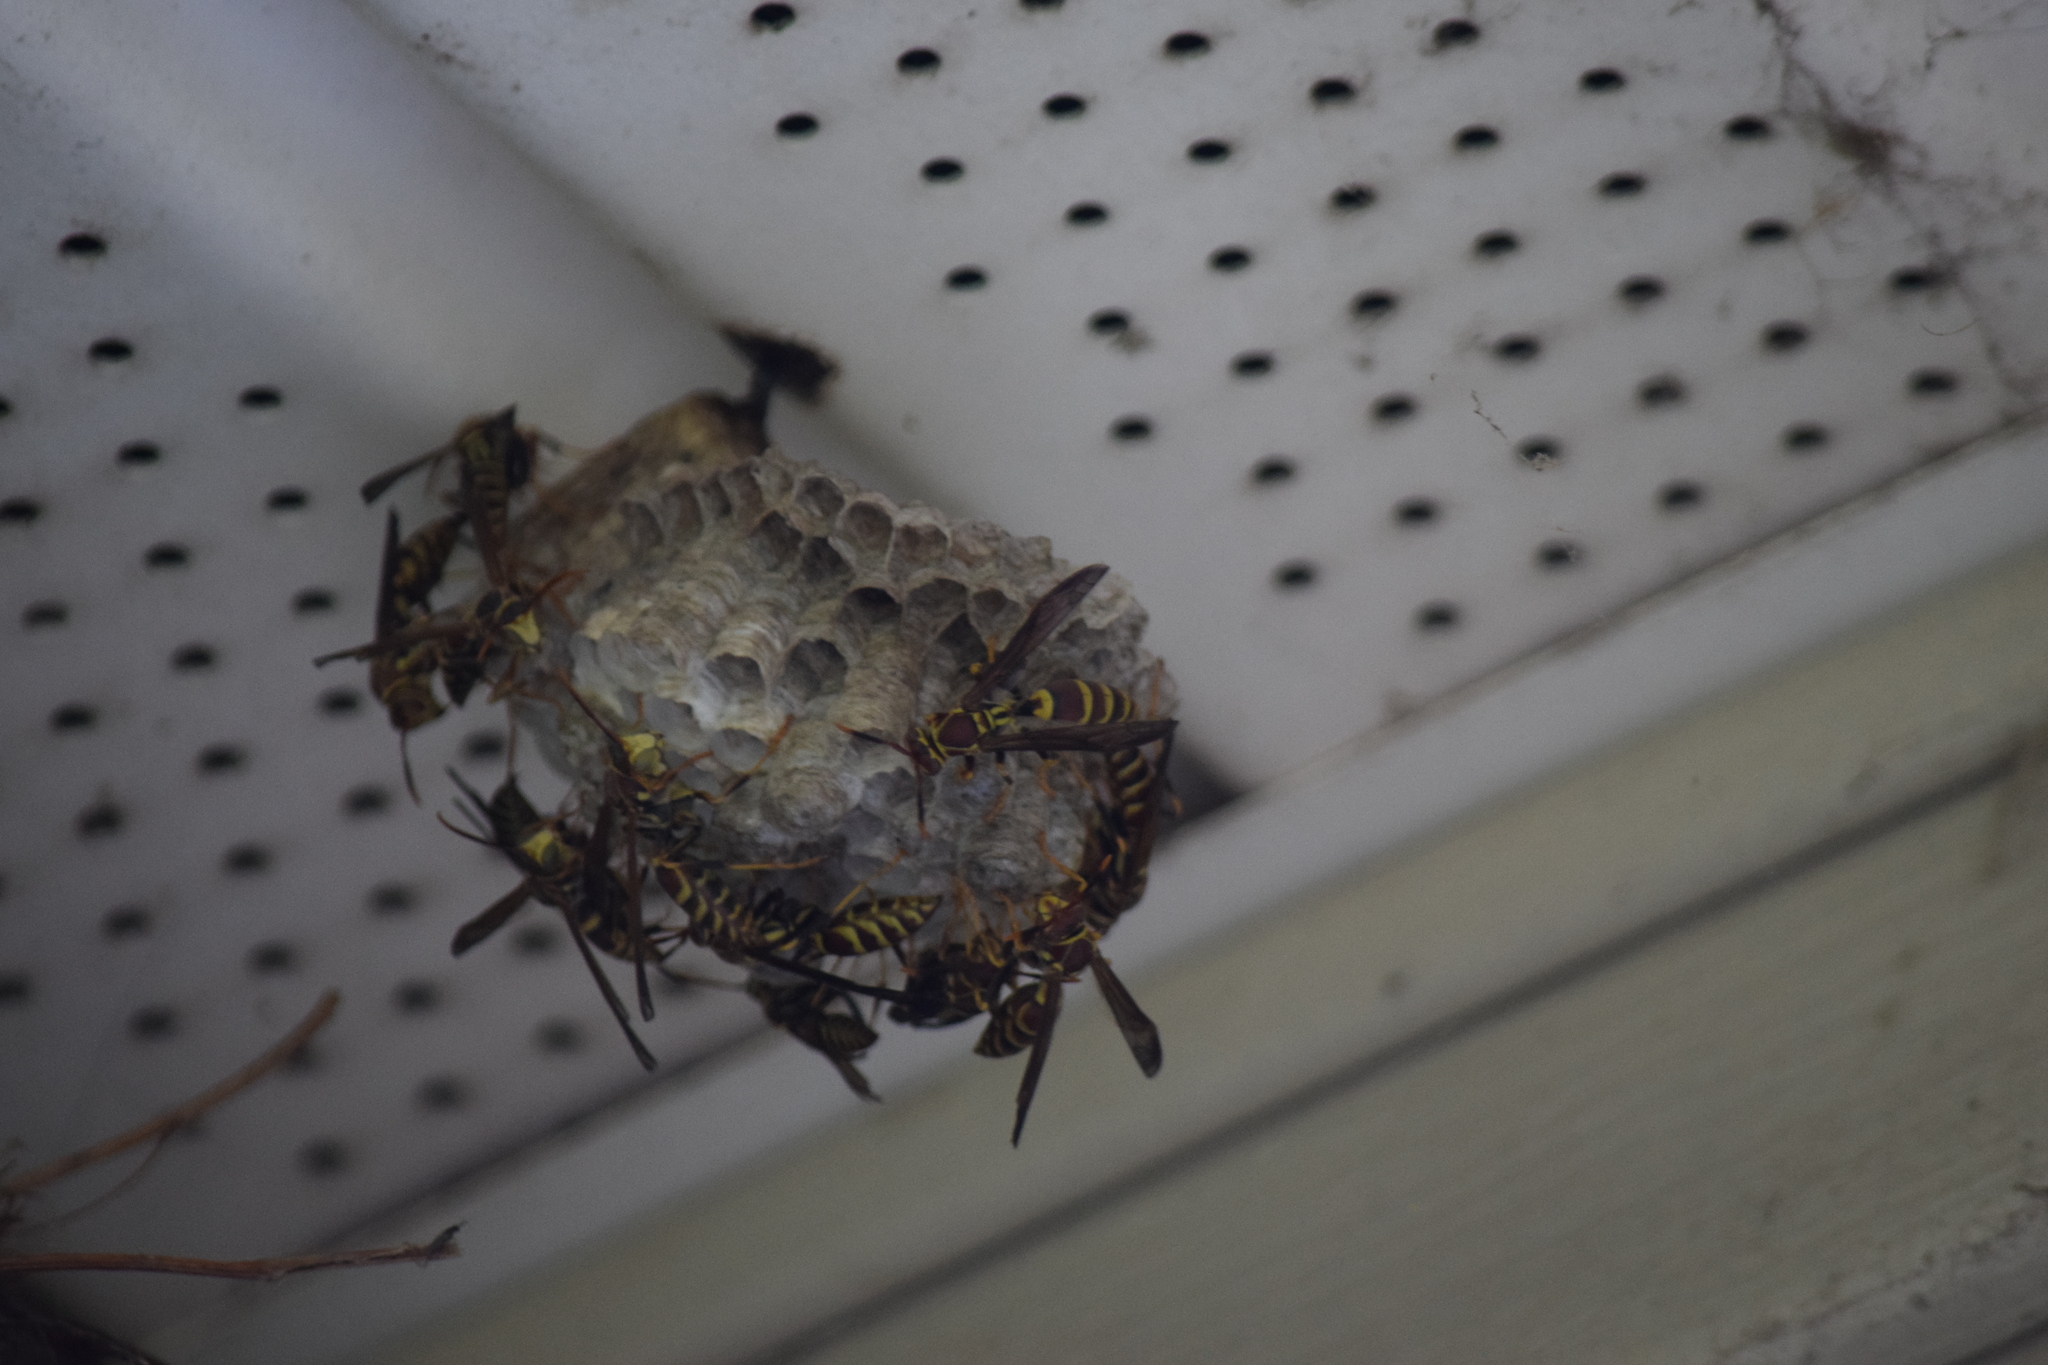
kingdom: Animalia
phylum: Arthropoda
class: Insecta
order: Hymenoptera
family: Eumenidae
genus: Polistes
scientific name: Polistes exclamans
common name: Paper wasp
